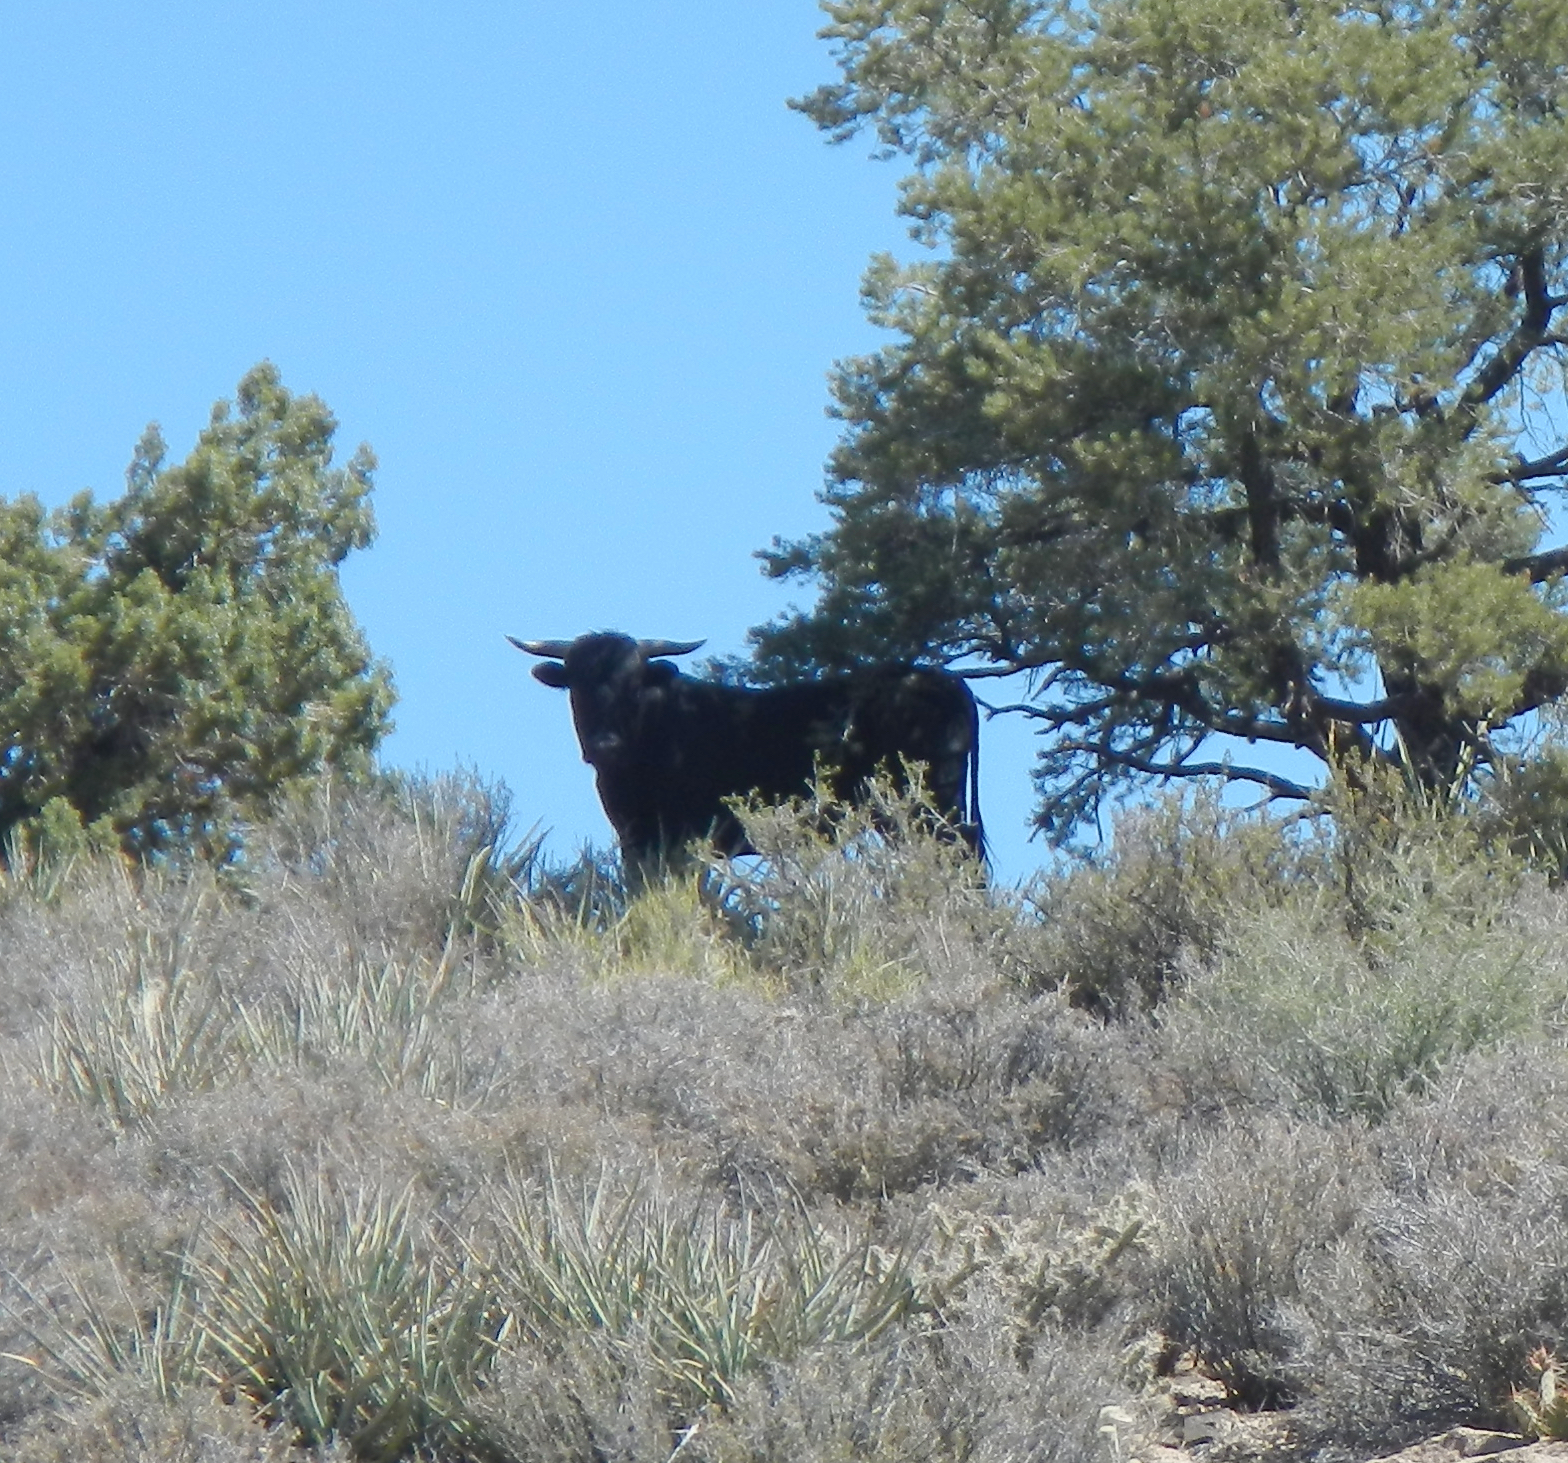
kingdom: Animalia
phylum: Chordata
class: Mammalia
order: Artiodactyla
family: Bovidae
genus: Bos
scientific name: Bos taurus
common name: Domesticated cattle
